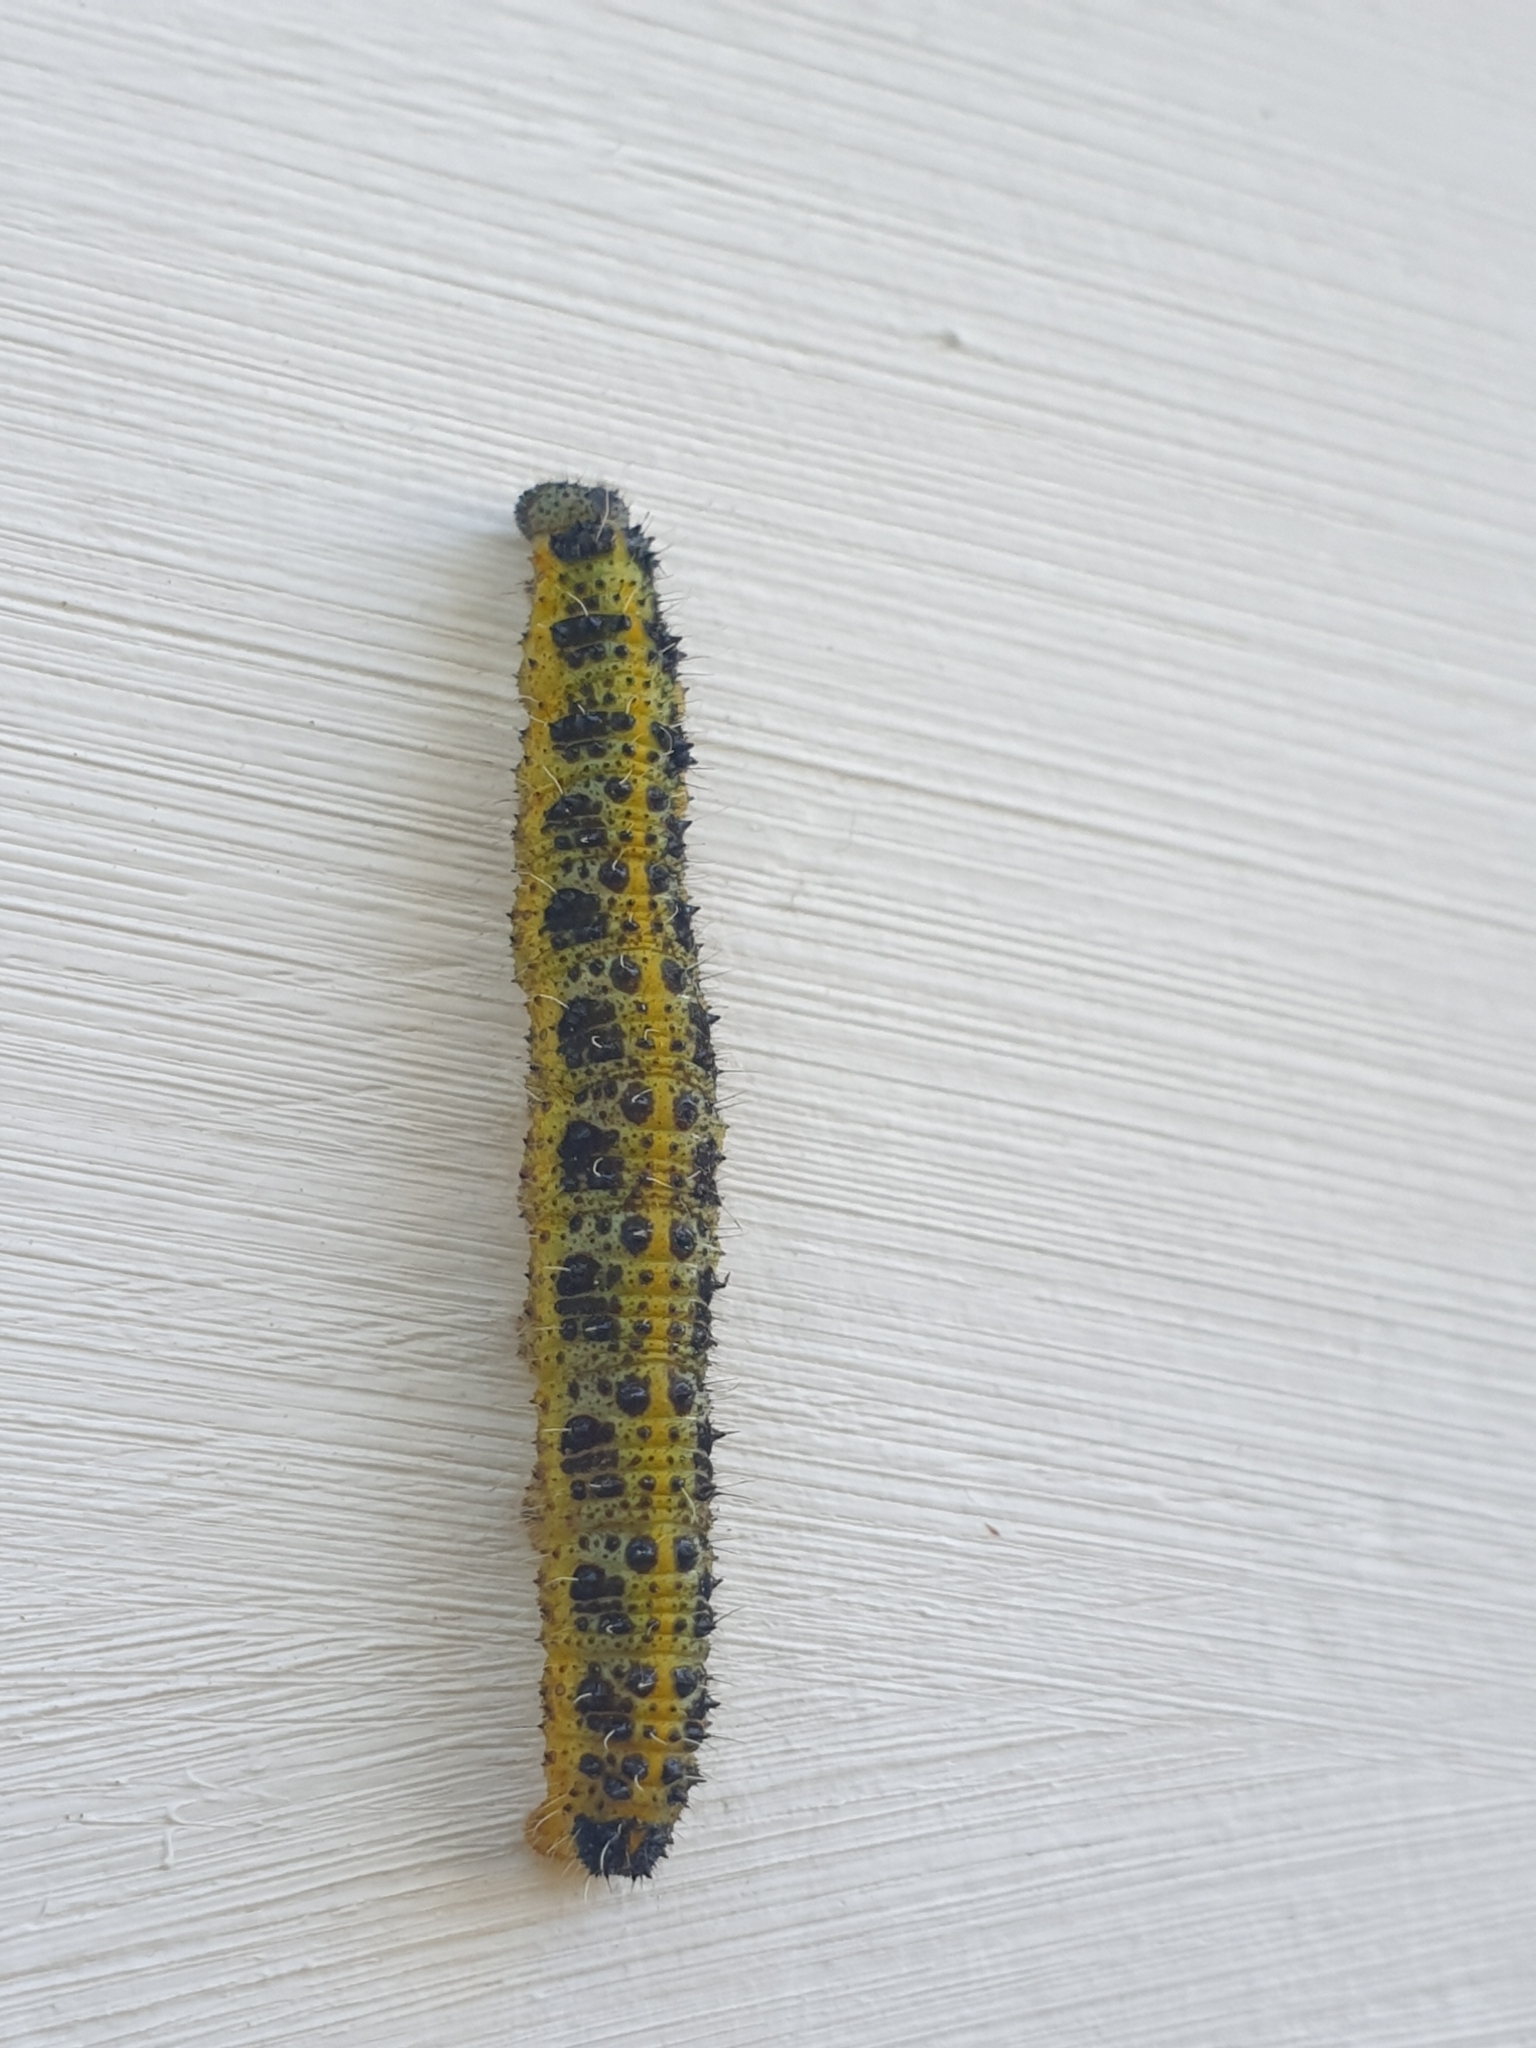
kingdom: Animalia
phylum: Arthropoda
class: Insecta
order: Lepidoptera
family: Pieridae
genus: Pieris
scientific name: Pieris brassicae
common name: Large white
